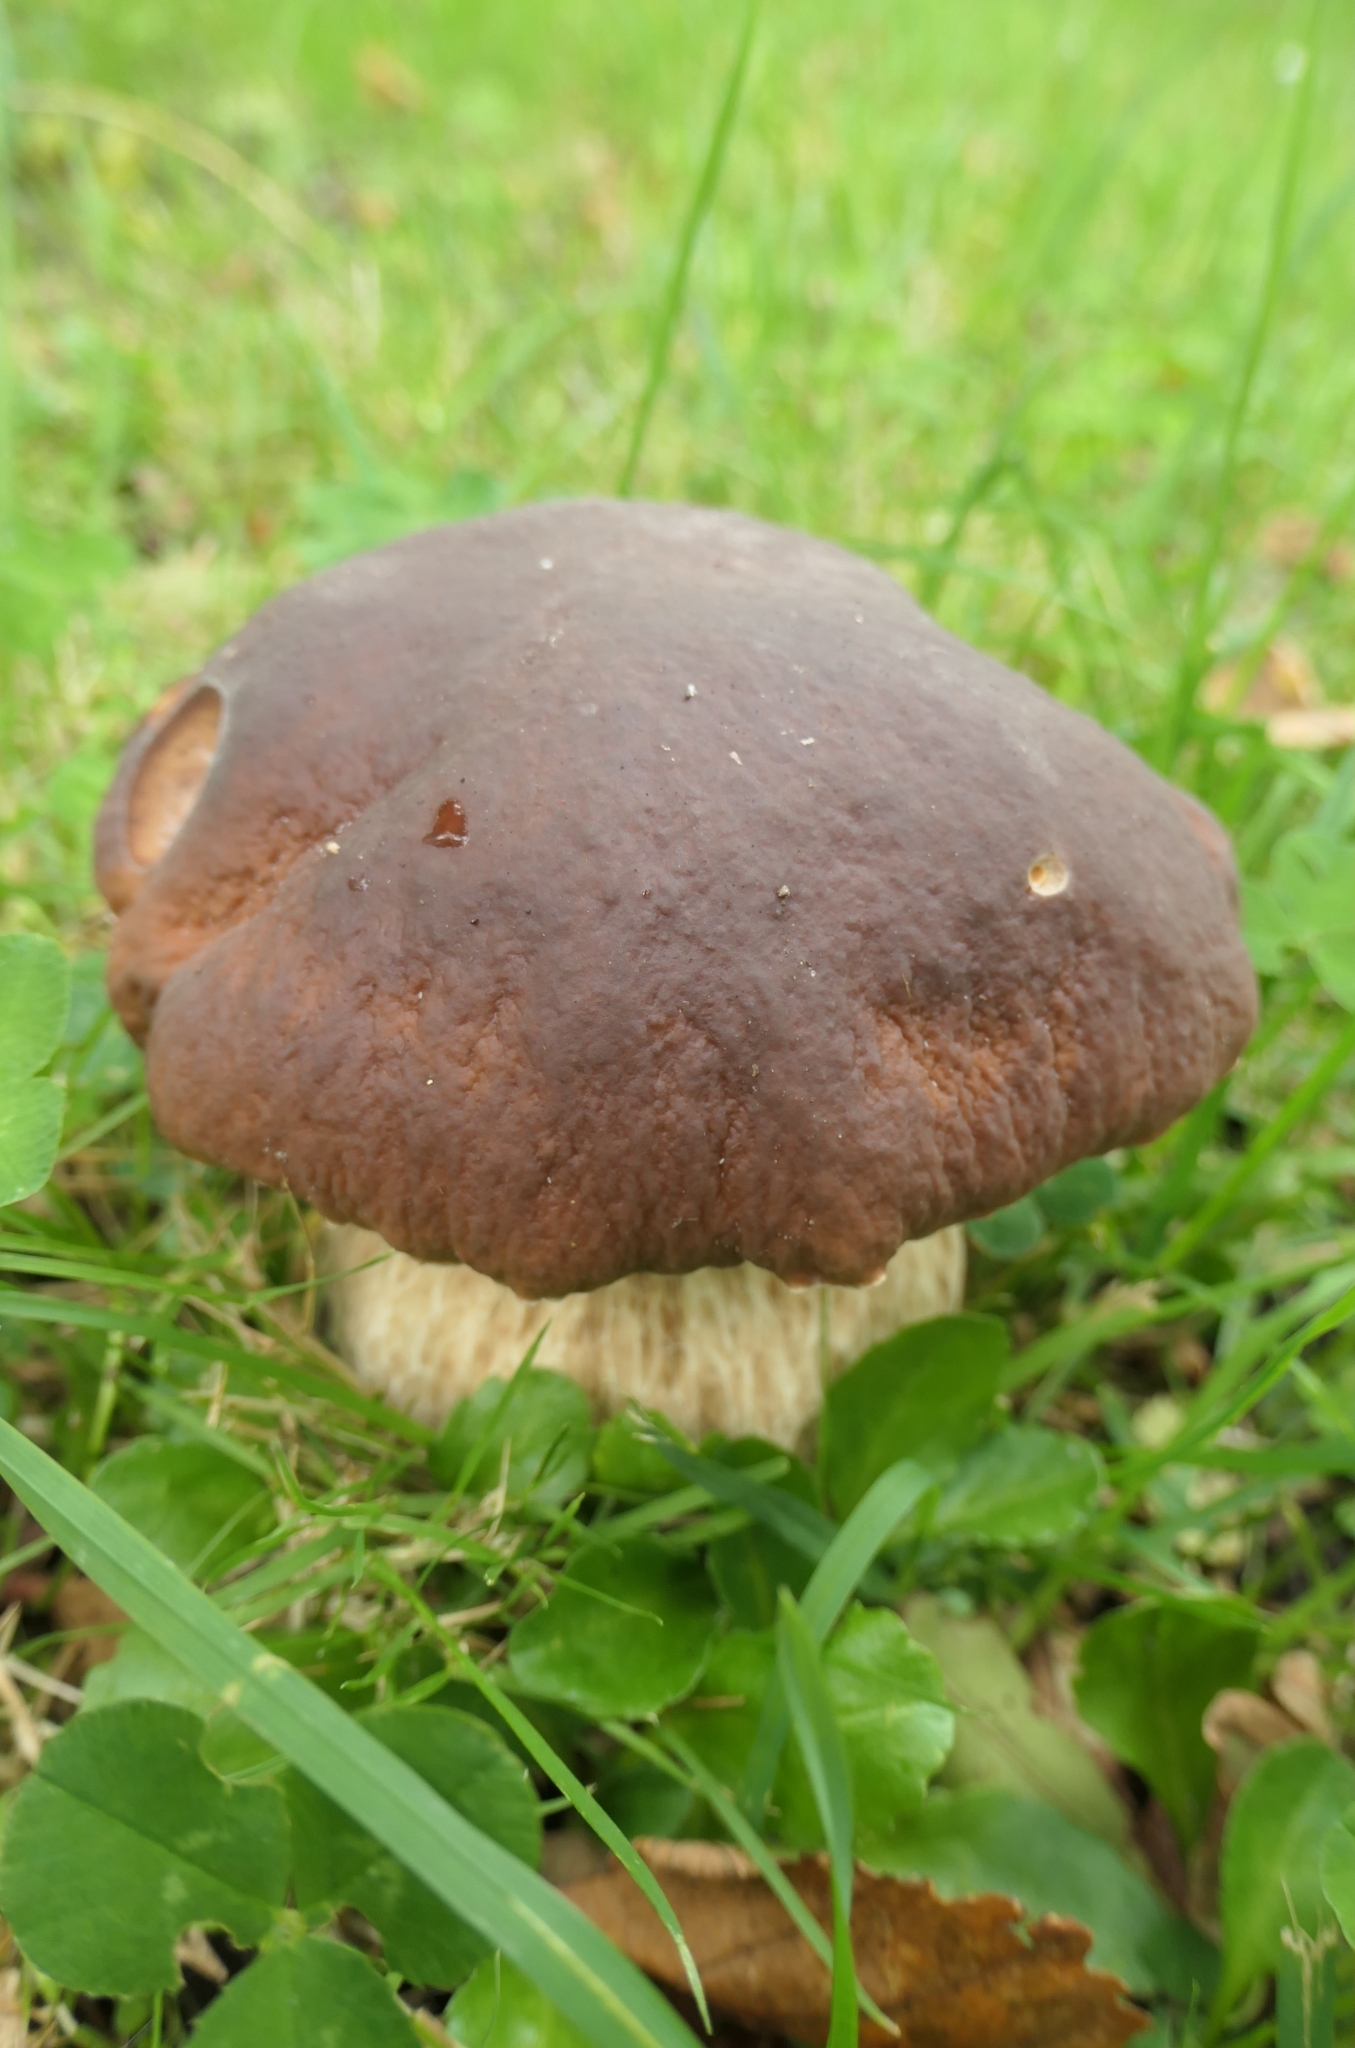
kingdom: Fungi
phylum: Basidiomycota
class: Agaricomycetes
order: Boletales
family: Boletaceae
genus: Boletus
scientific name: Boletus edulis
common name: Cep
